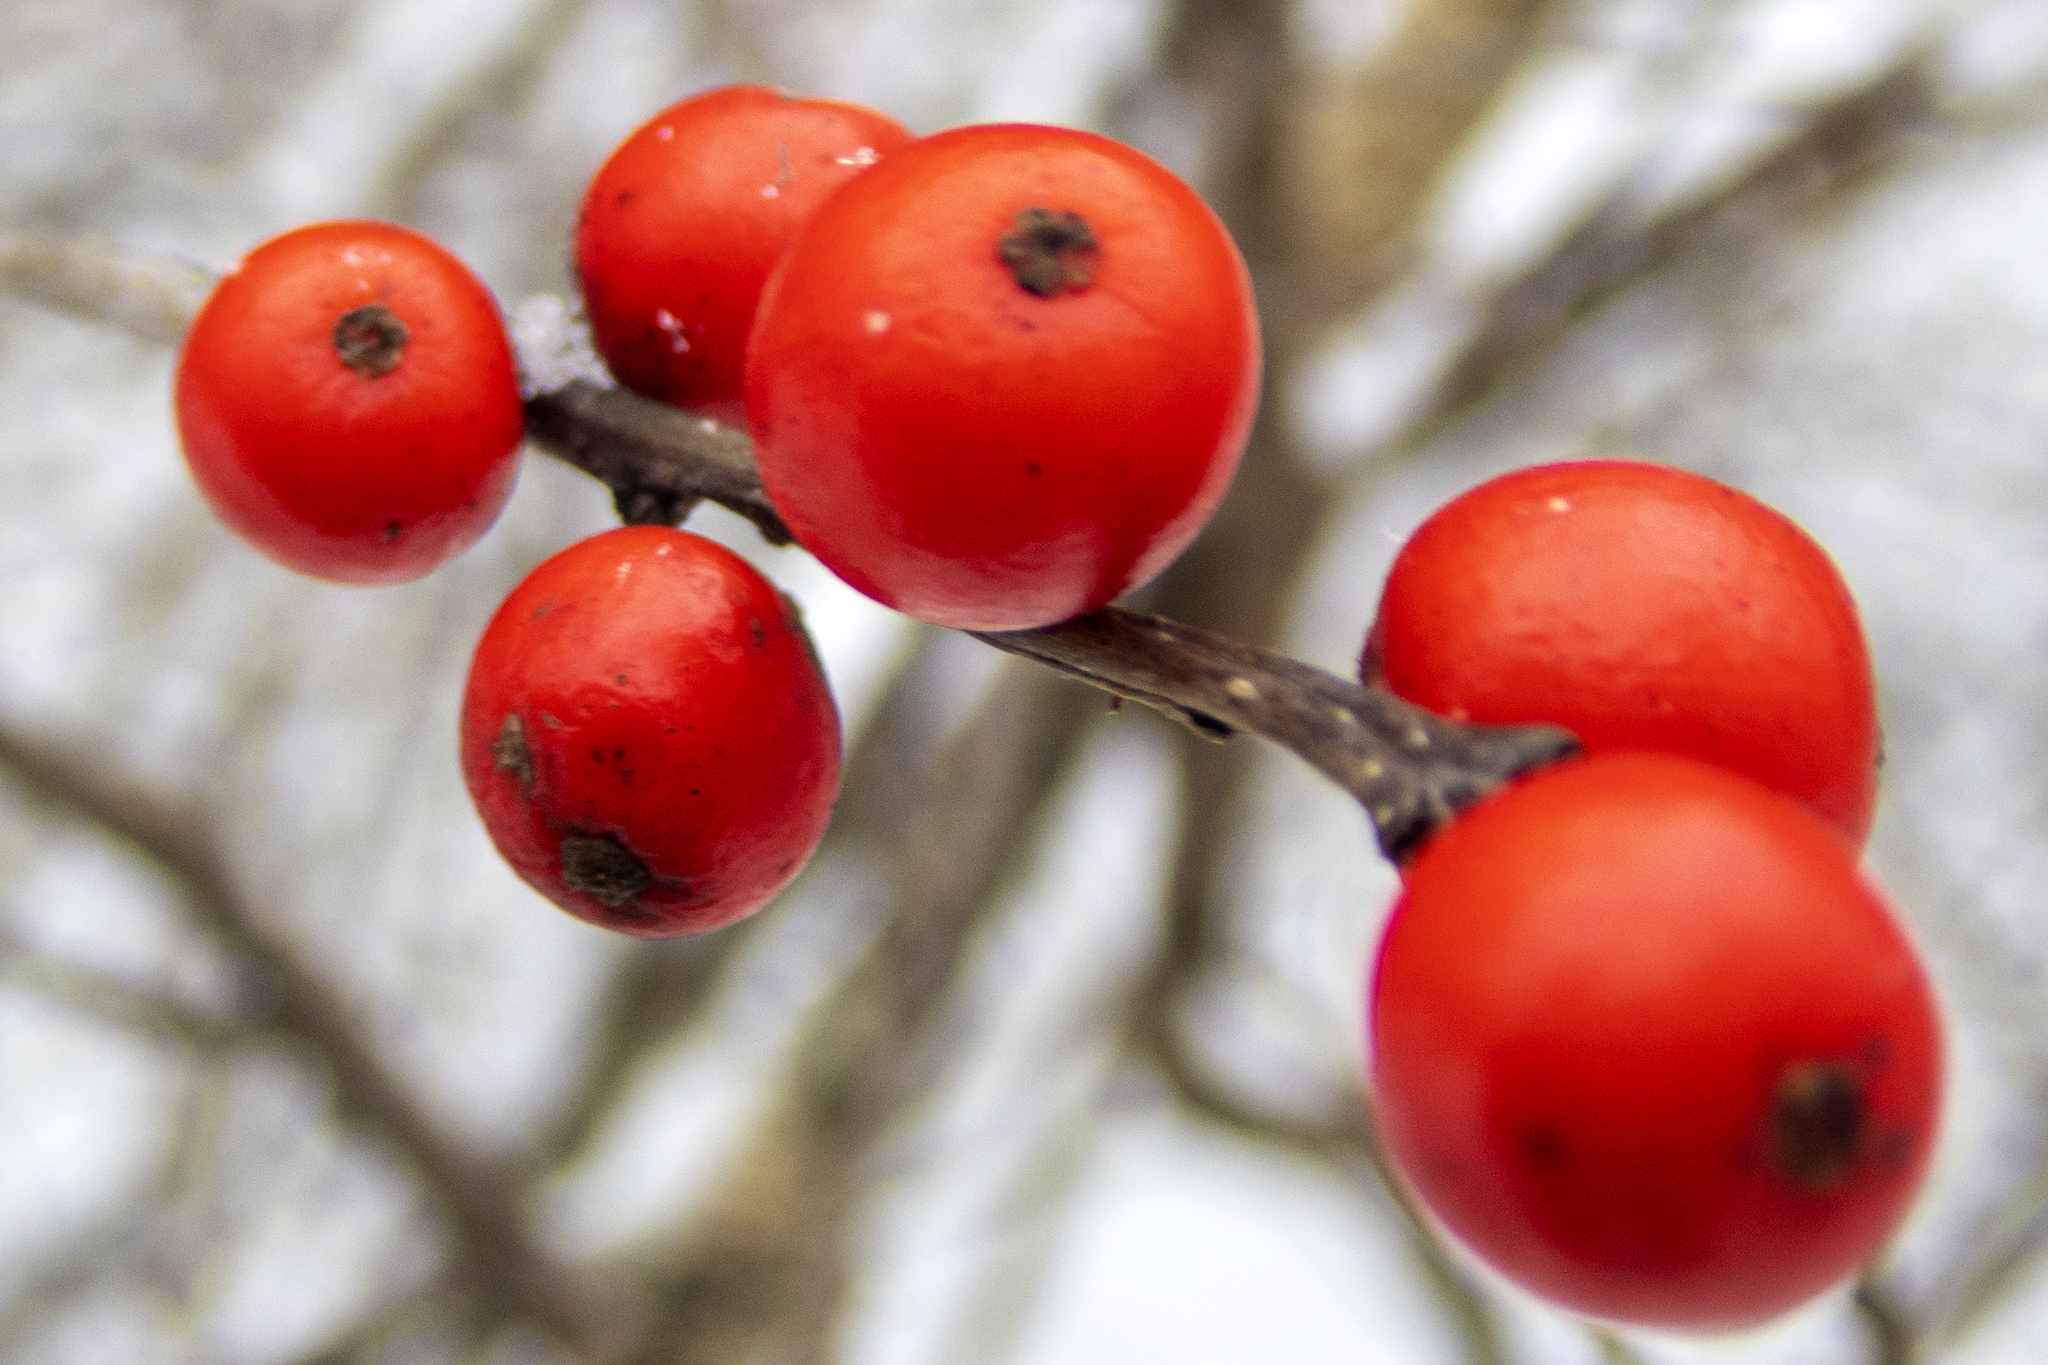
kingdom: Plantae
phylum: Tracheophyta
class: Magnoliopsida
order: Aquifoliales
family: Aquifoliaceae
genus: Ilex
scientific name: Ilex verticillata
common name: Virginia winterberry
